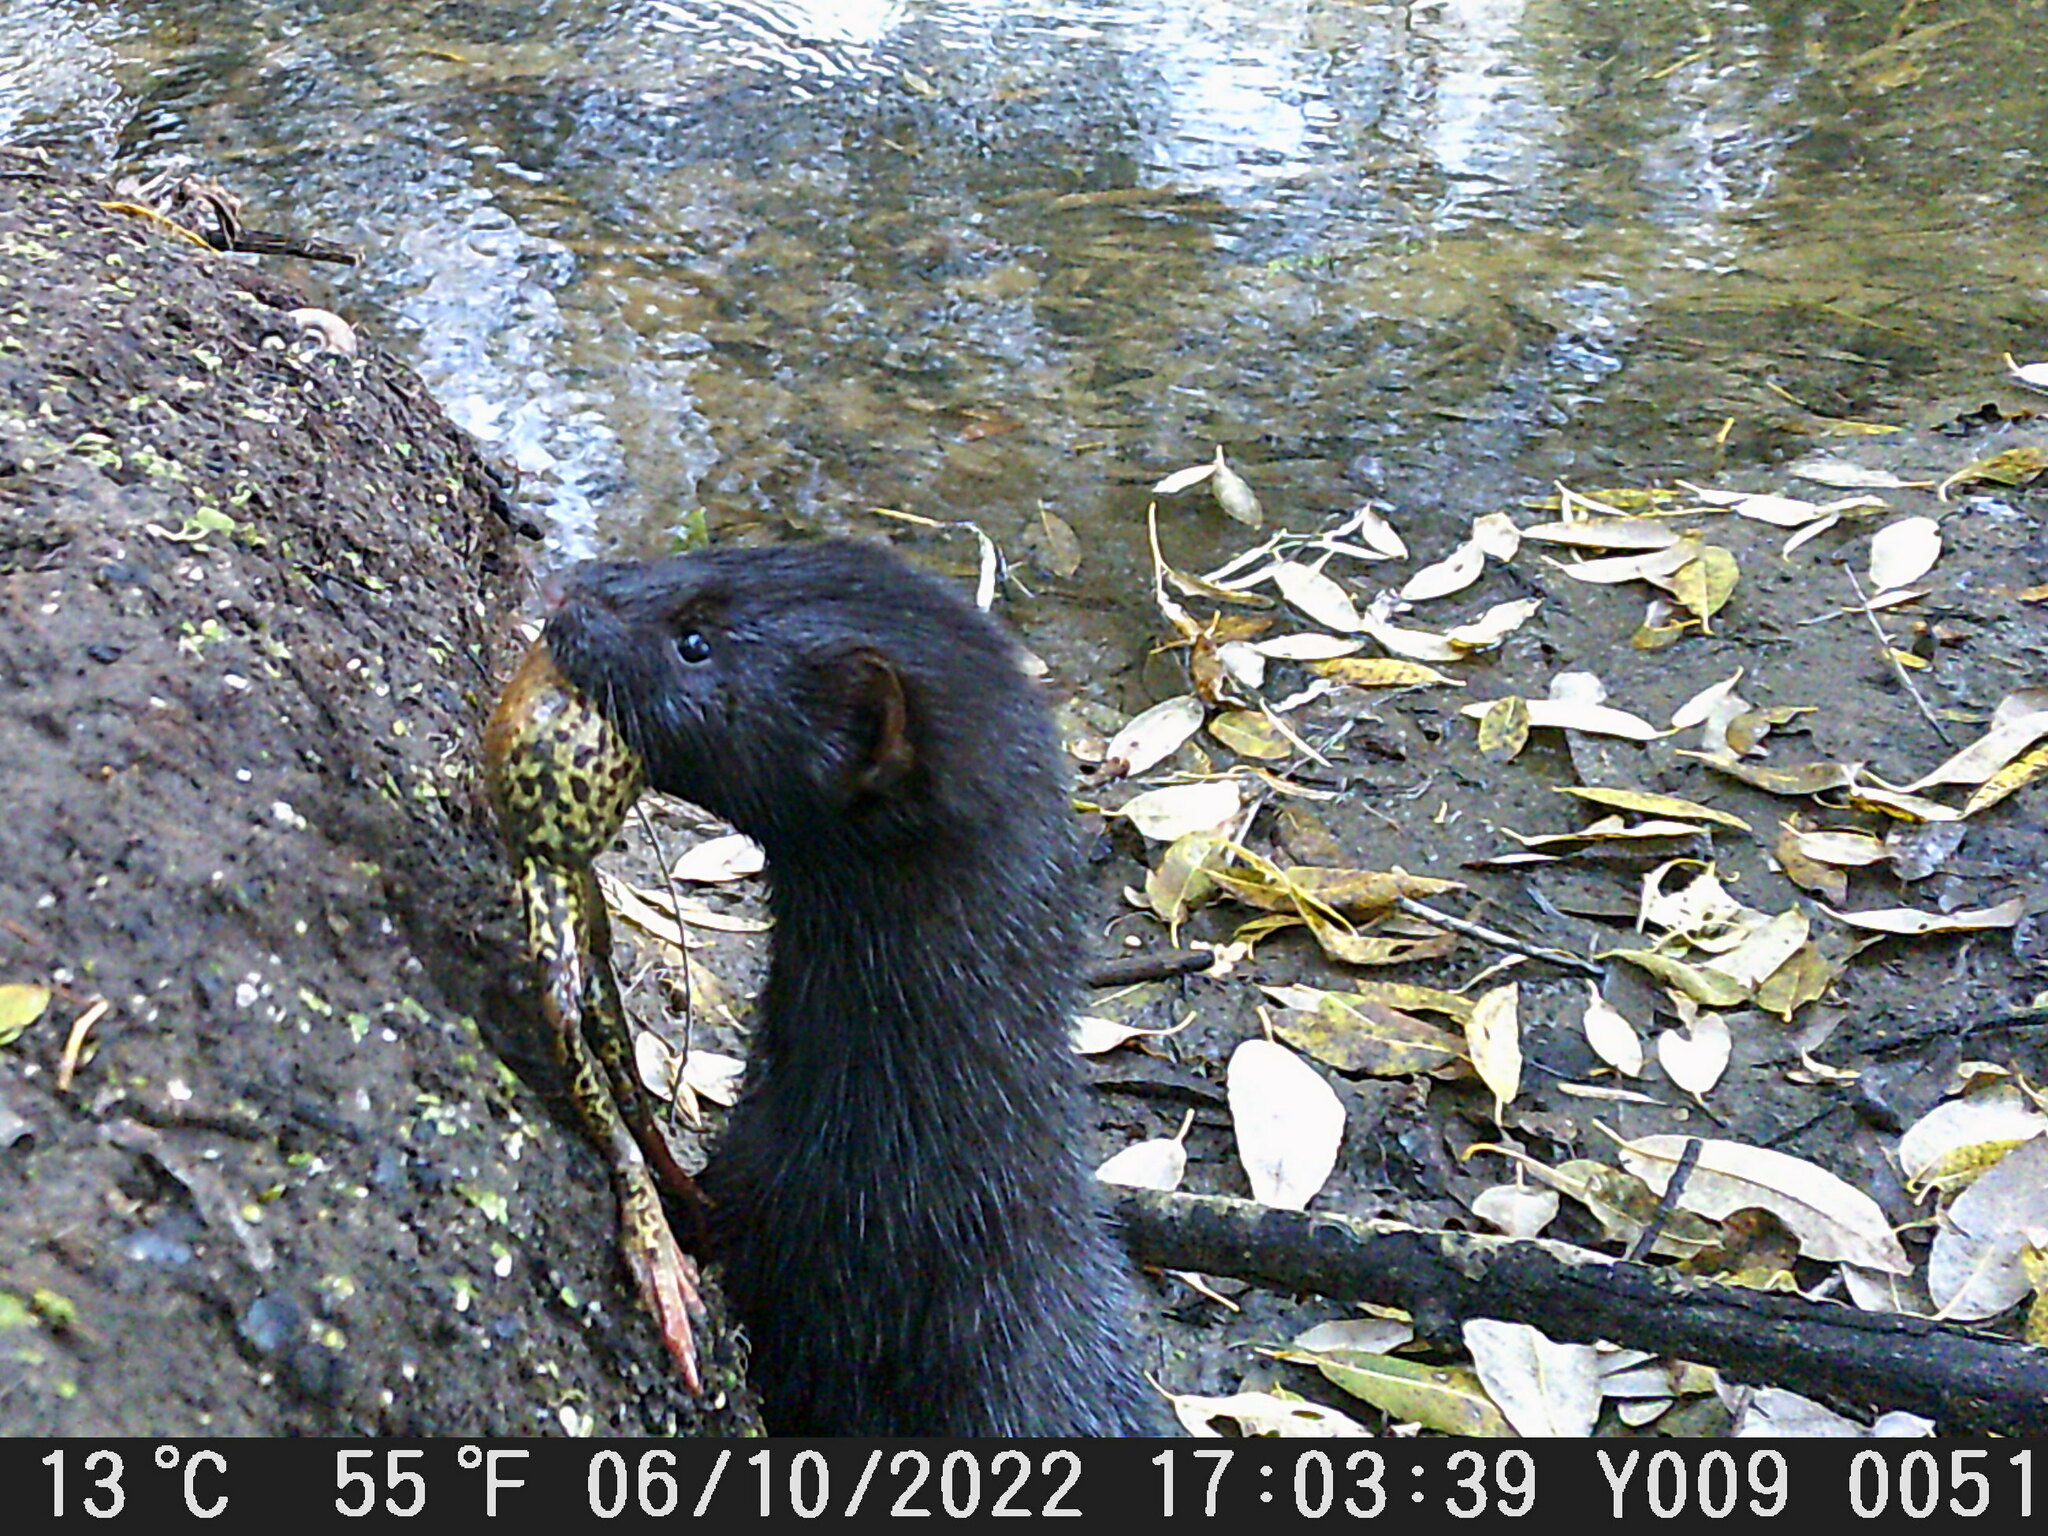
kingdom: Animalia
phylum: Chordata
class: Amphibia
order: Anura
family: Ranidae
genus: Rana
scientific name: Rana temporaria
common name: Common frog
